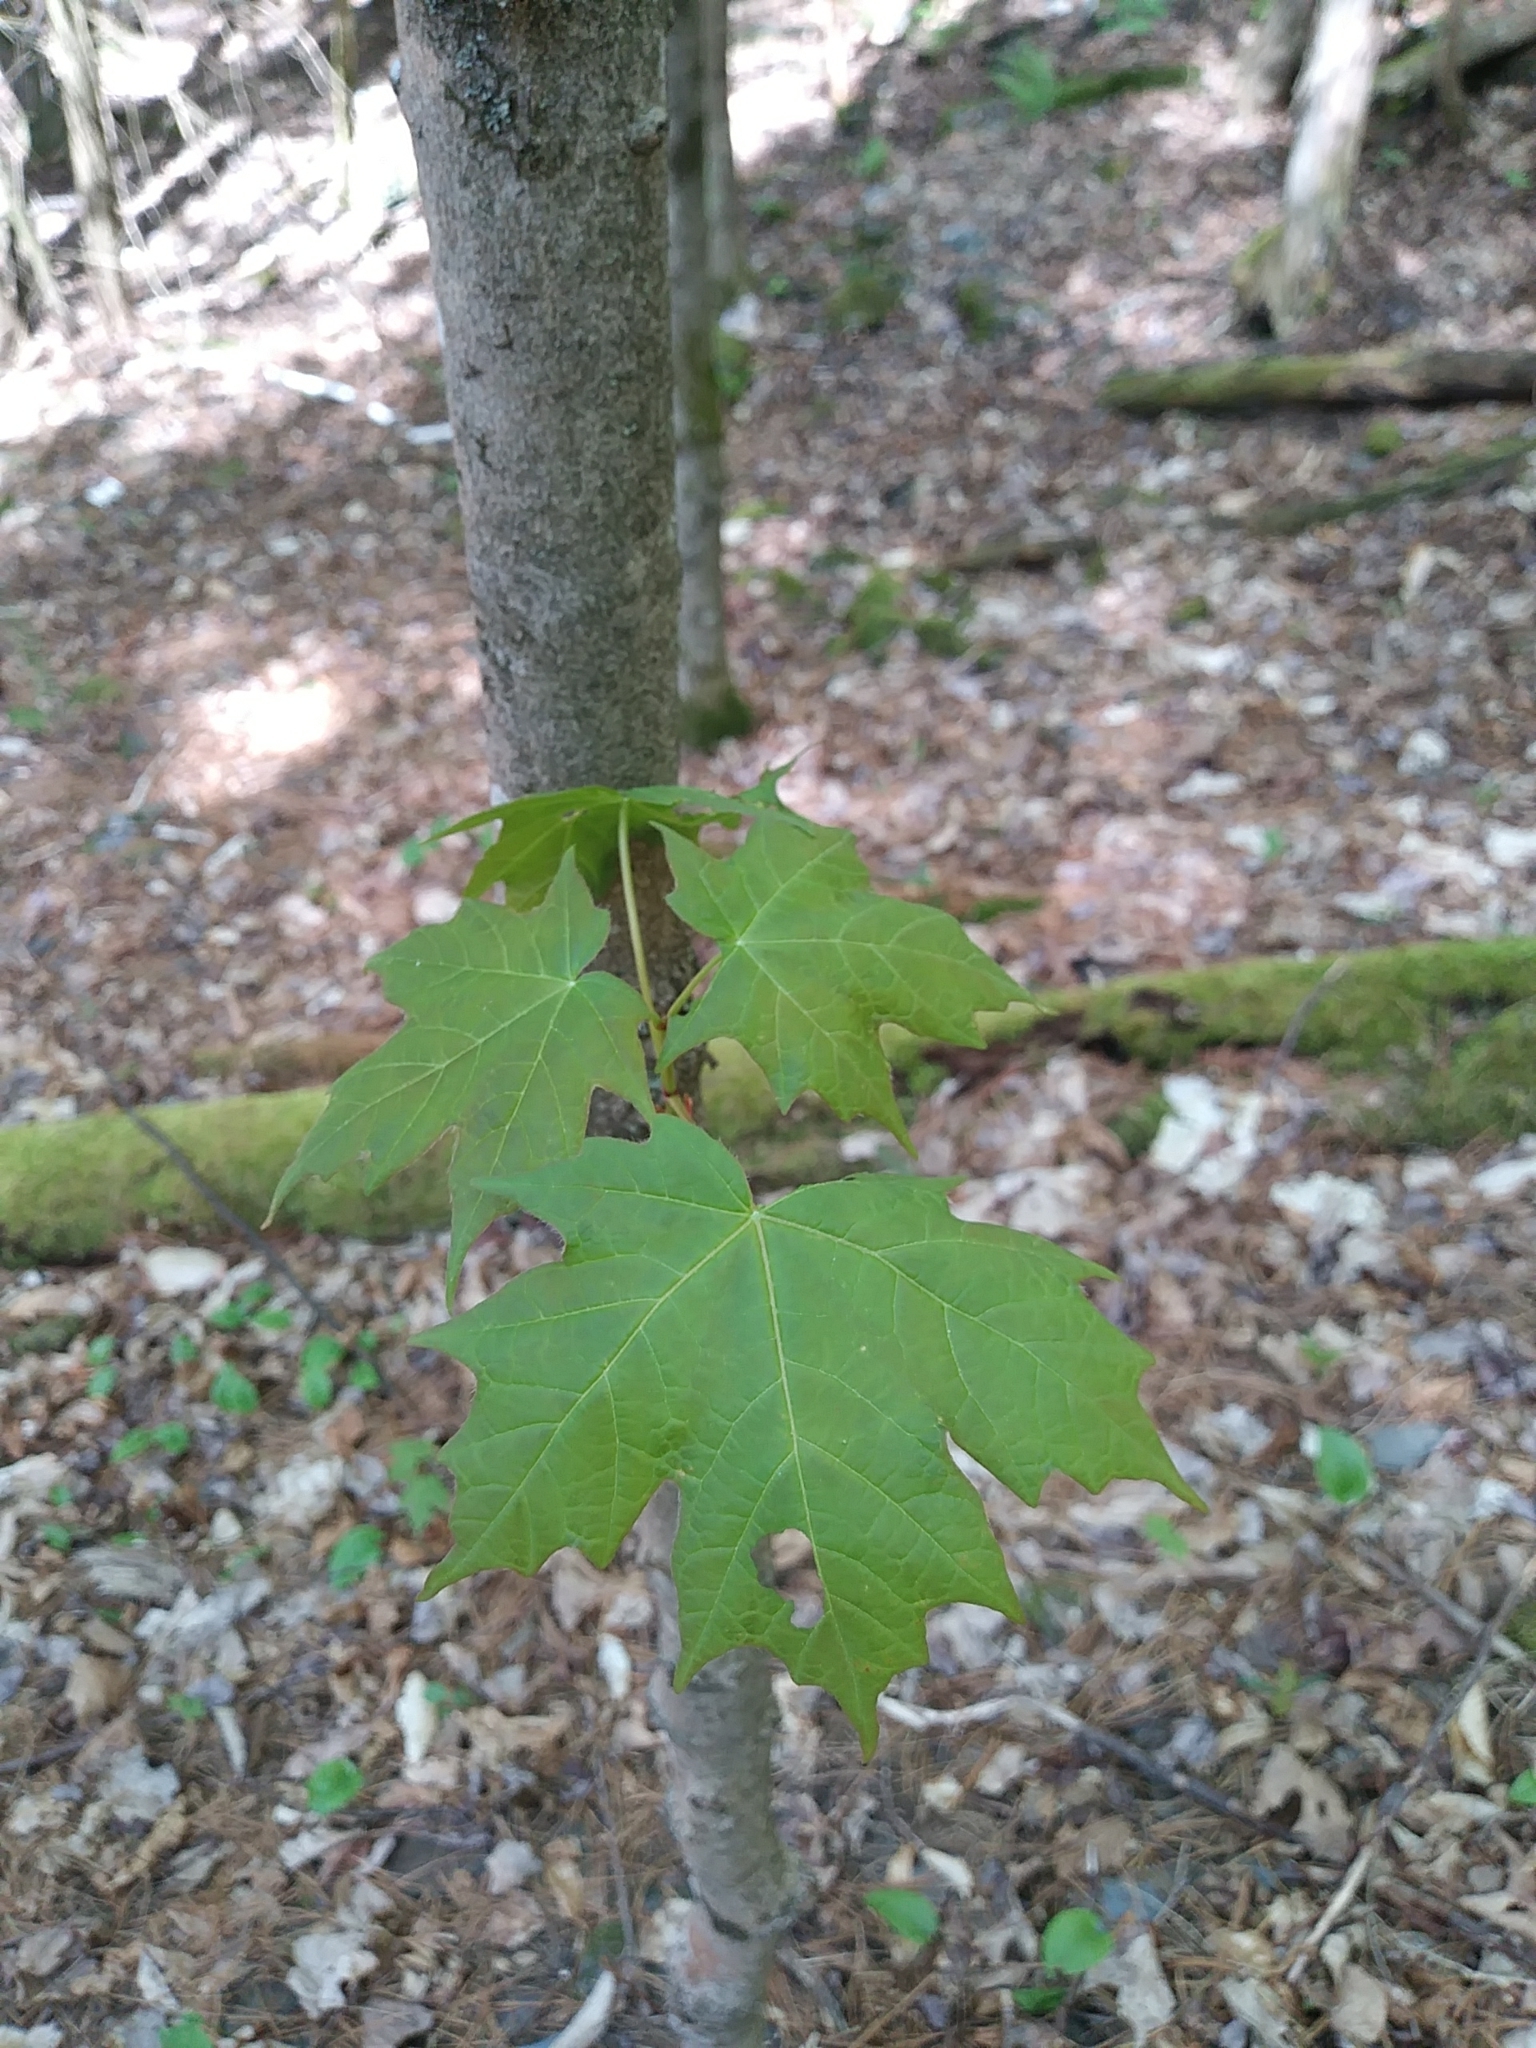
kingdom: Plantae
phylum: Tracheophyta
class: Magnoliopsida
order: Sapindales
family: Sapindaceae
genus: Acer
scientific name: Acer saccharum
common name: Sugar maple
